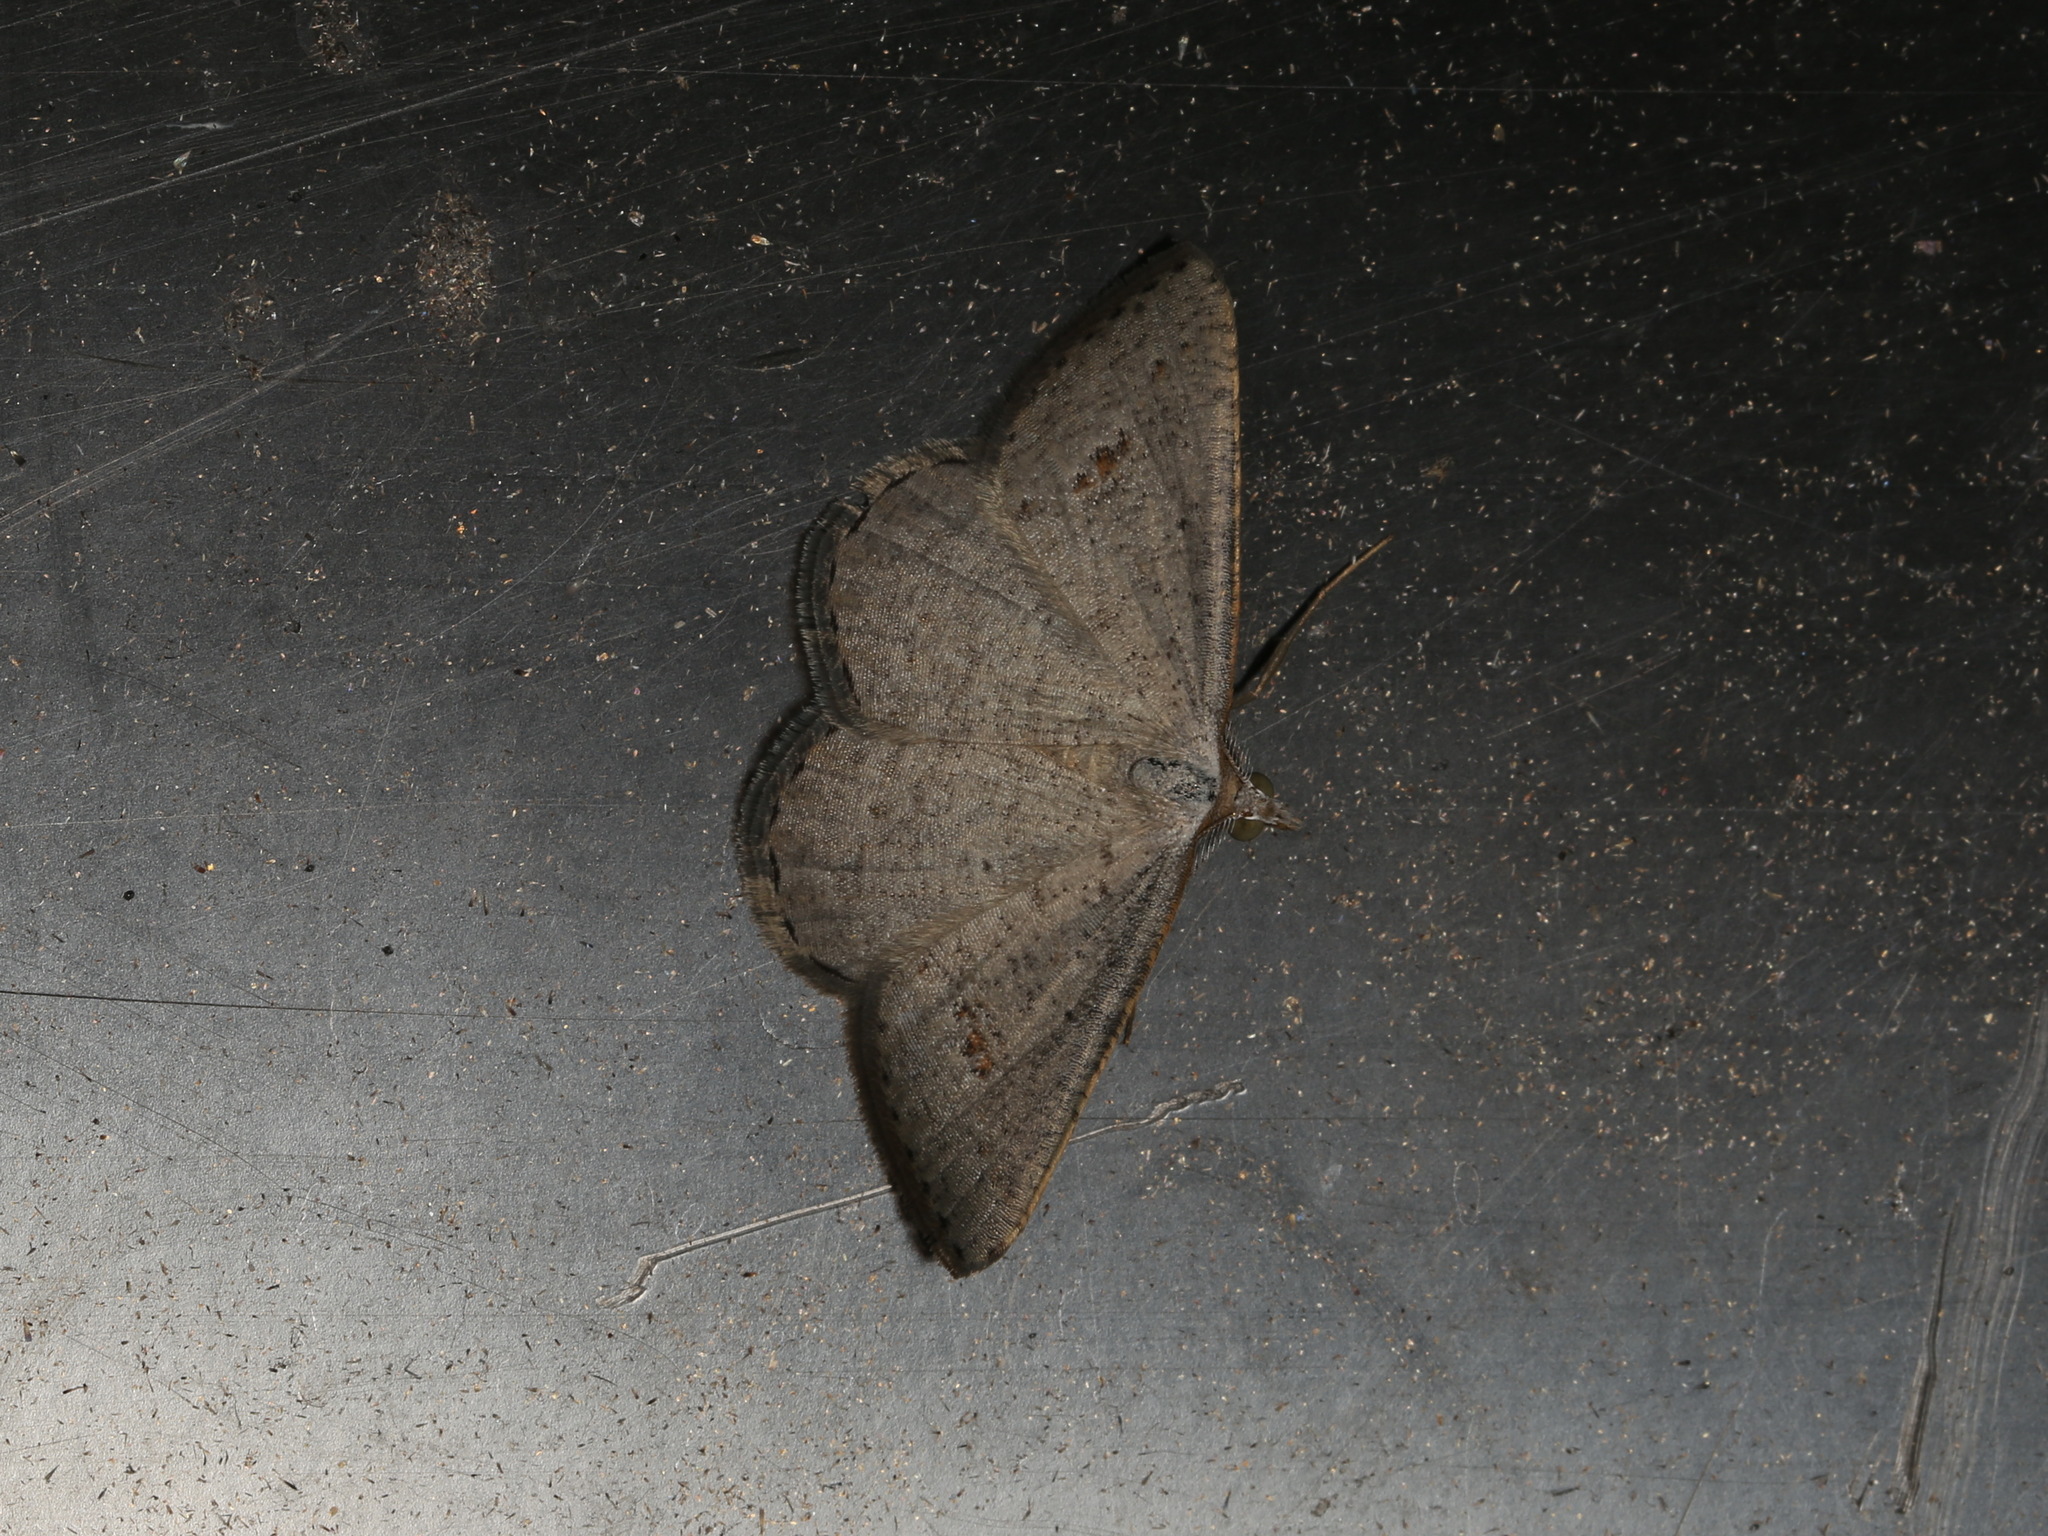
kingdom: Animalia
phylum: Arthropoda
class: Insecta
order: Lepidoptera
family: Geometridae
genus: Casbia
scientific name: Casbia pallens
